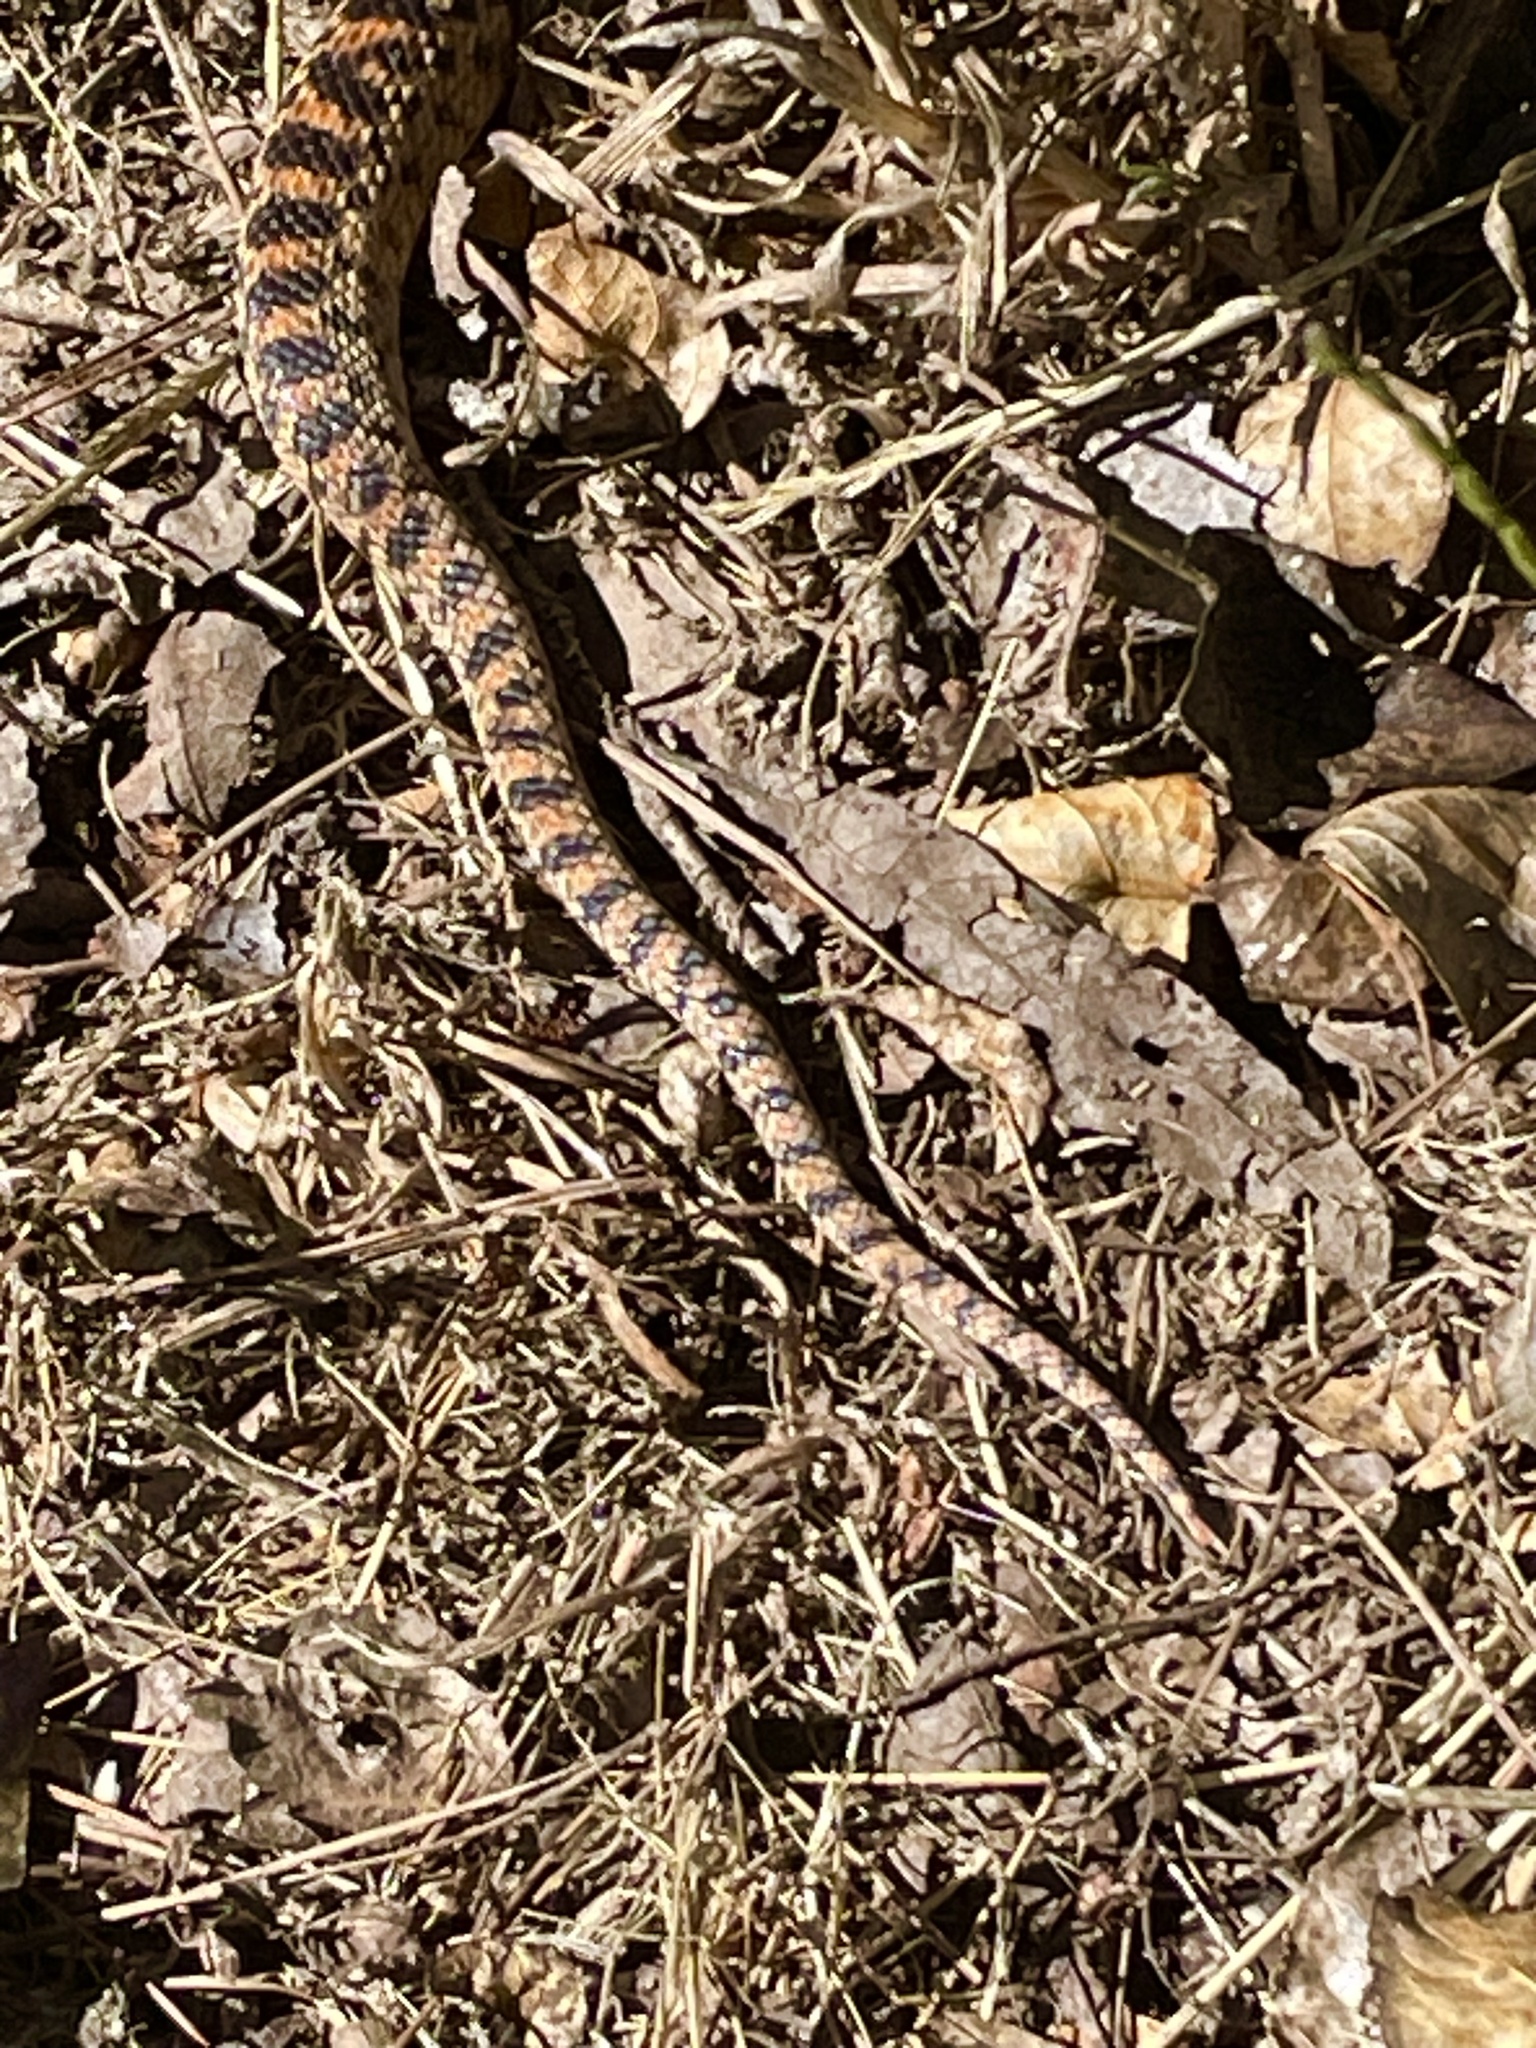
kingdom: Animalia
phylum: Chordata
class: Squamata
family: Colubridae
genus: Pituophis
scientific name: Pituophis catenifer
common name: Gopher snake
